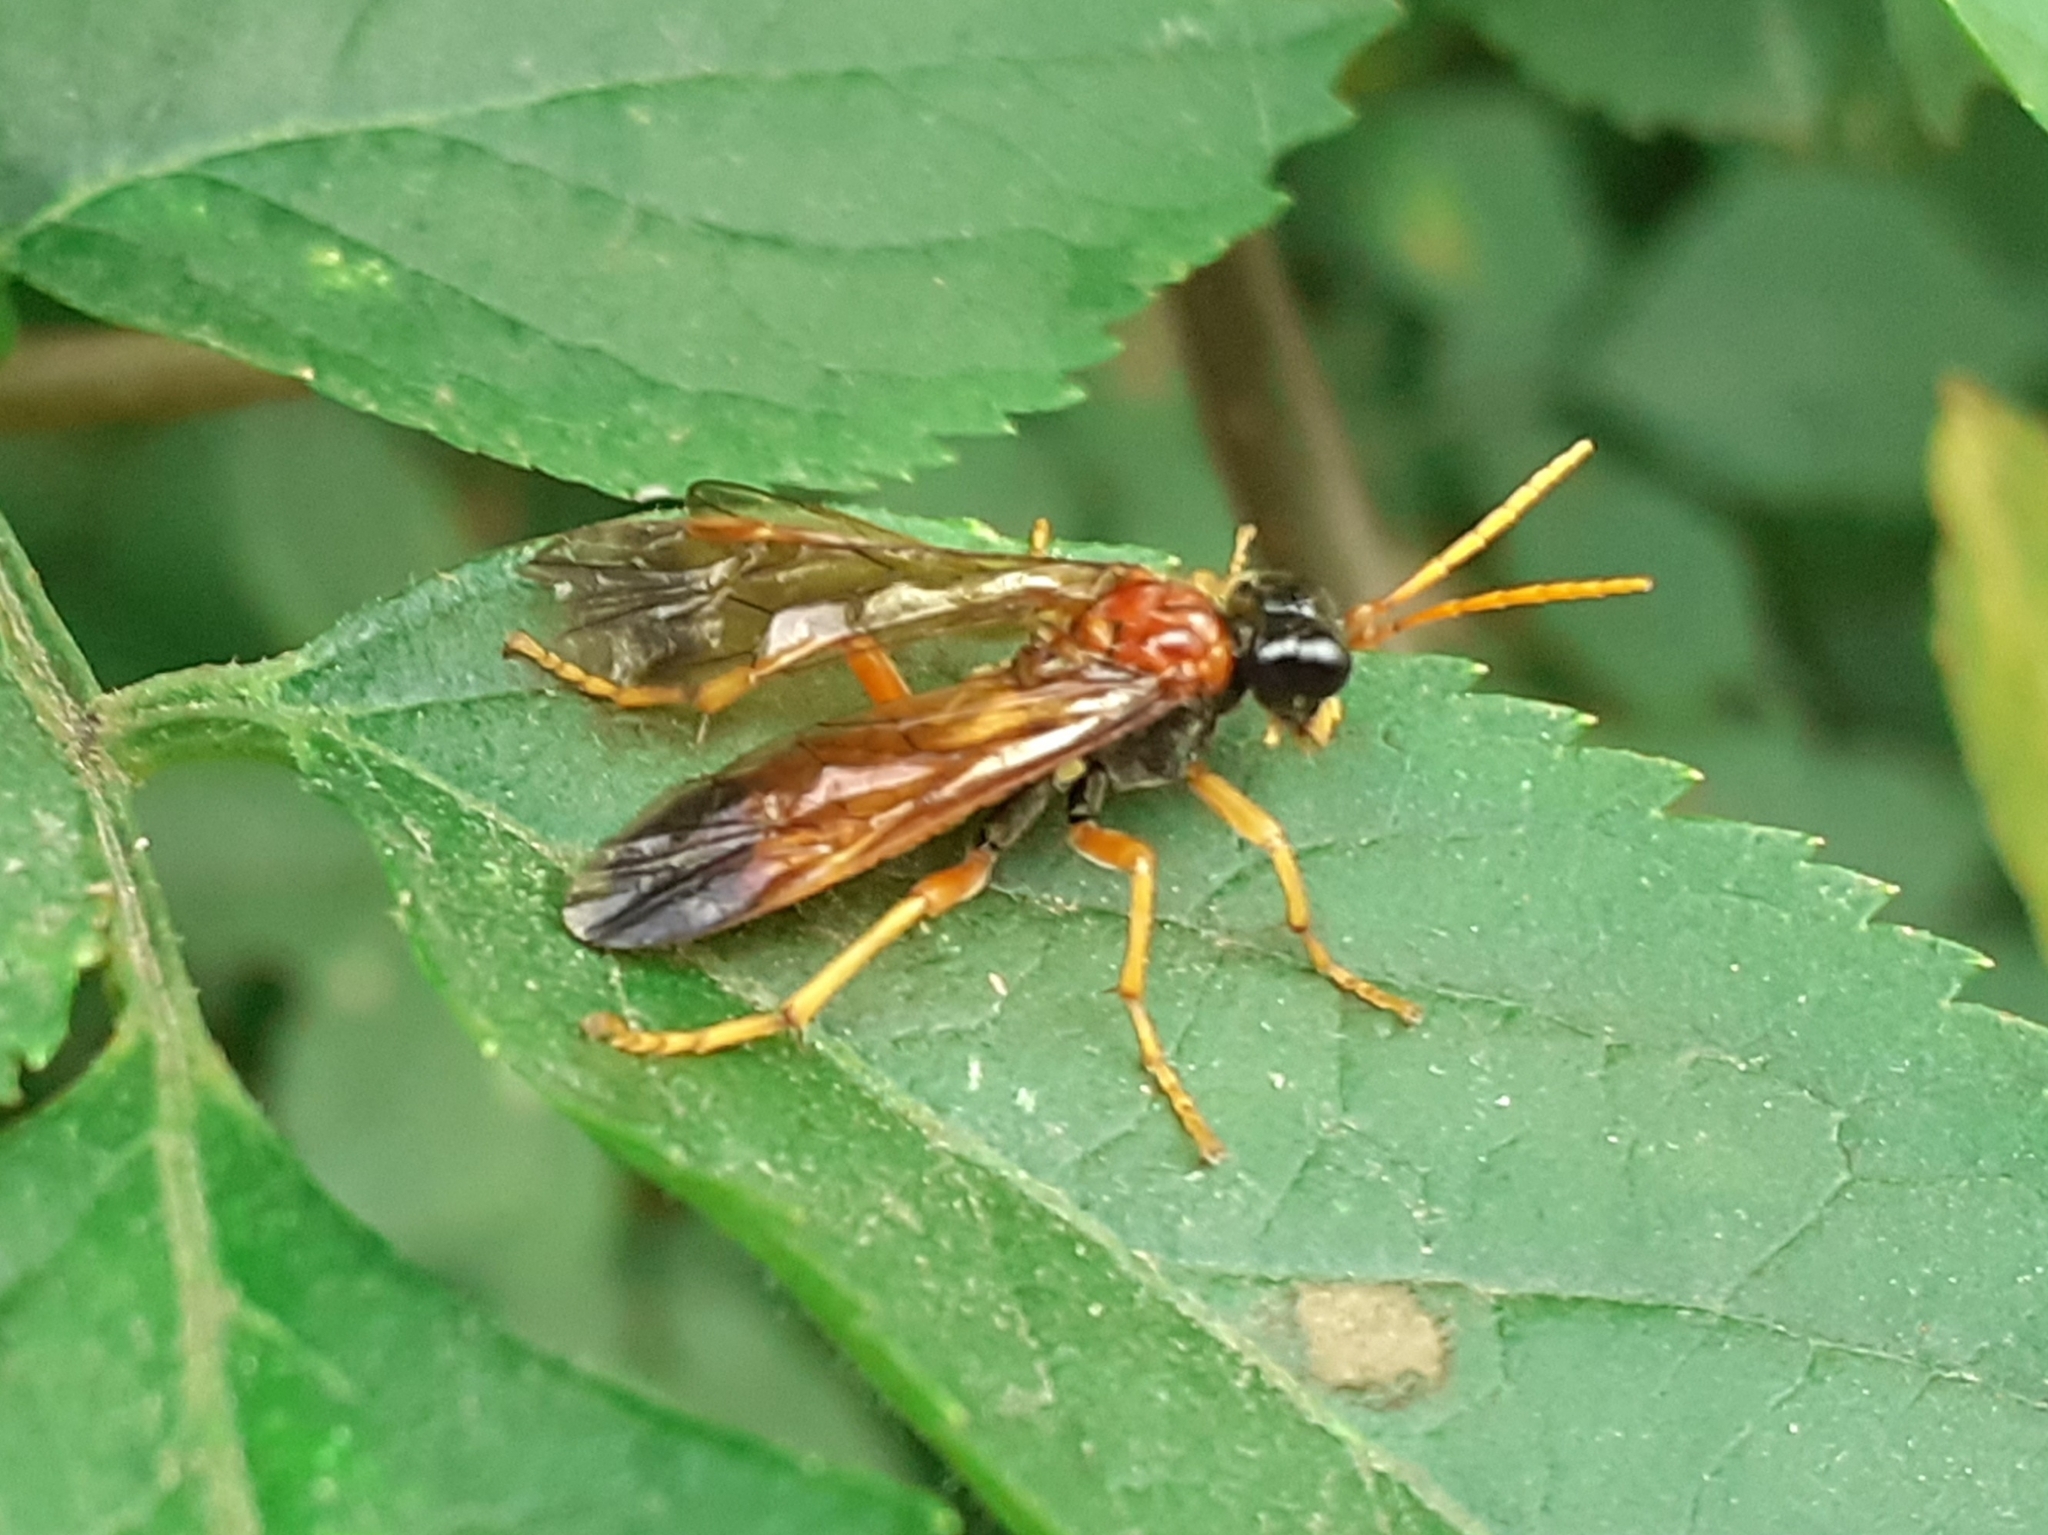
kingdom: Animalia
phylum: Arthropoda
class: Insecta
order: Hymenoptera
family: Tenthredinidae
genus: Tenthredo
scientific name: Tenthredo campestris
